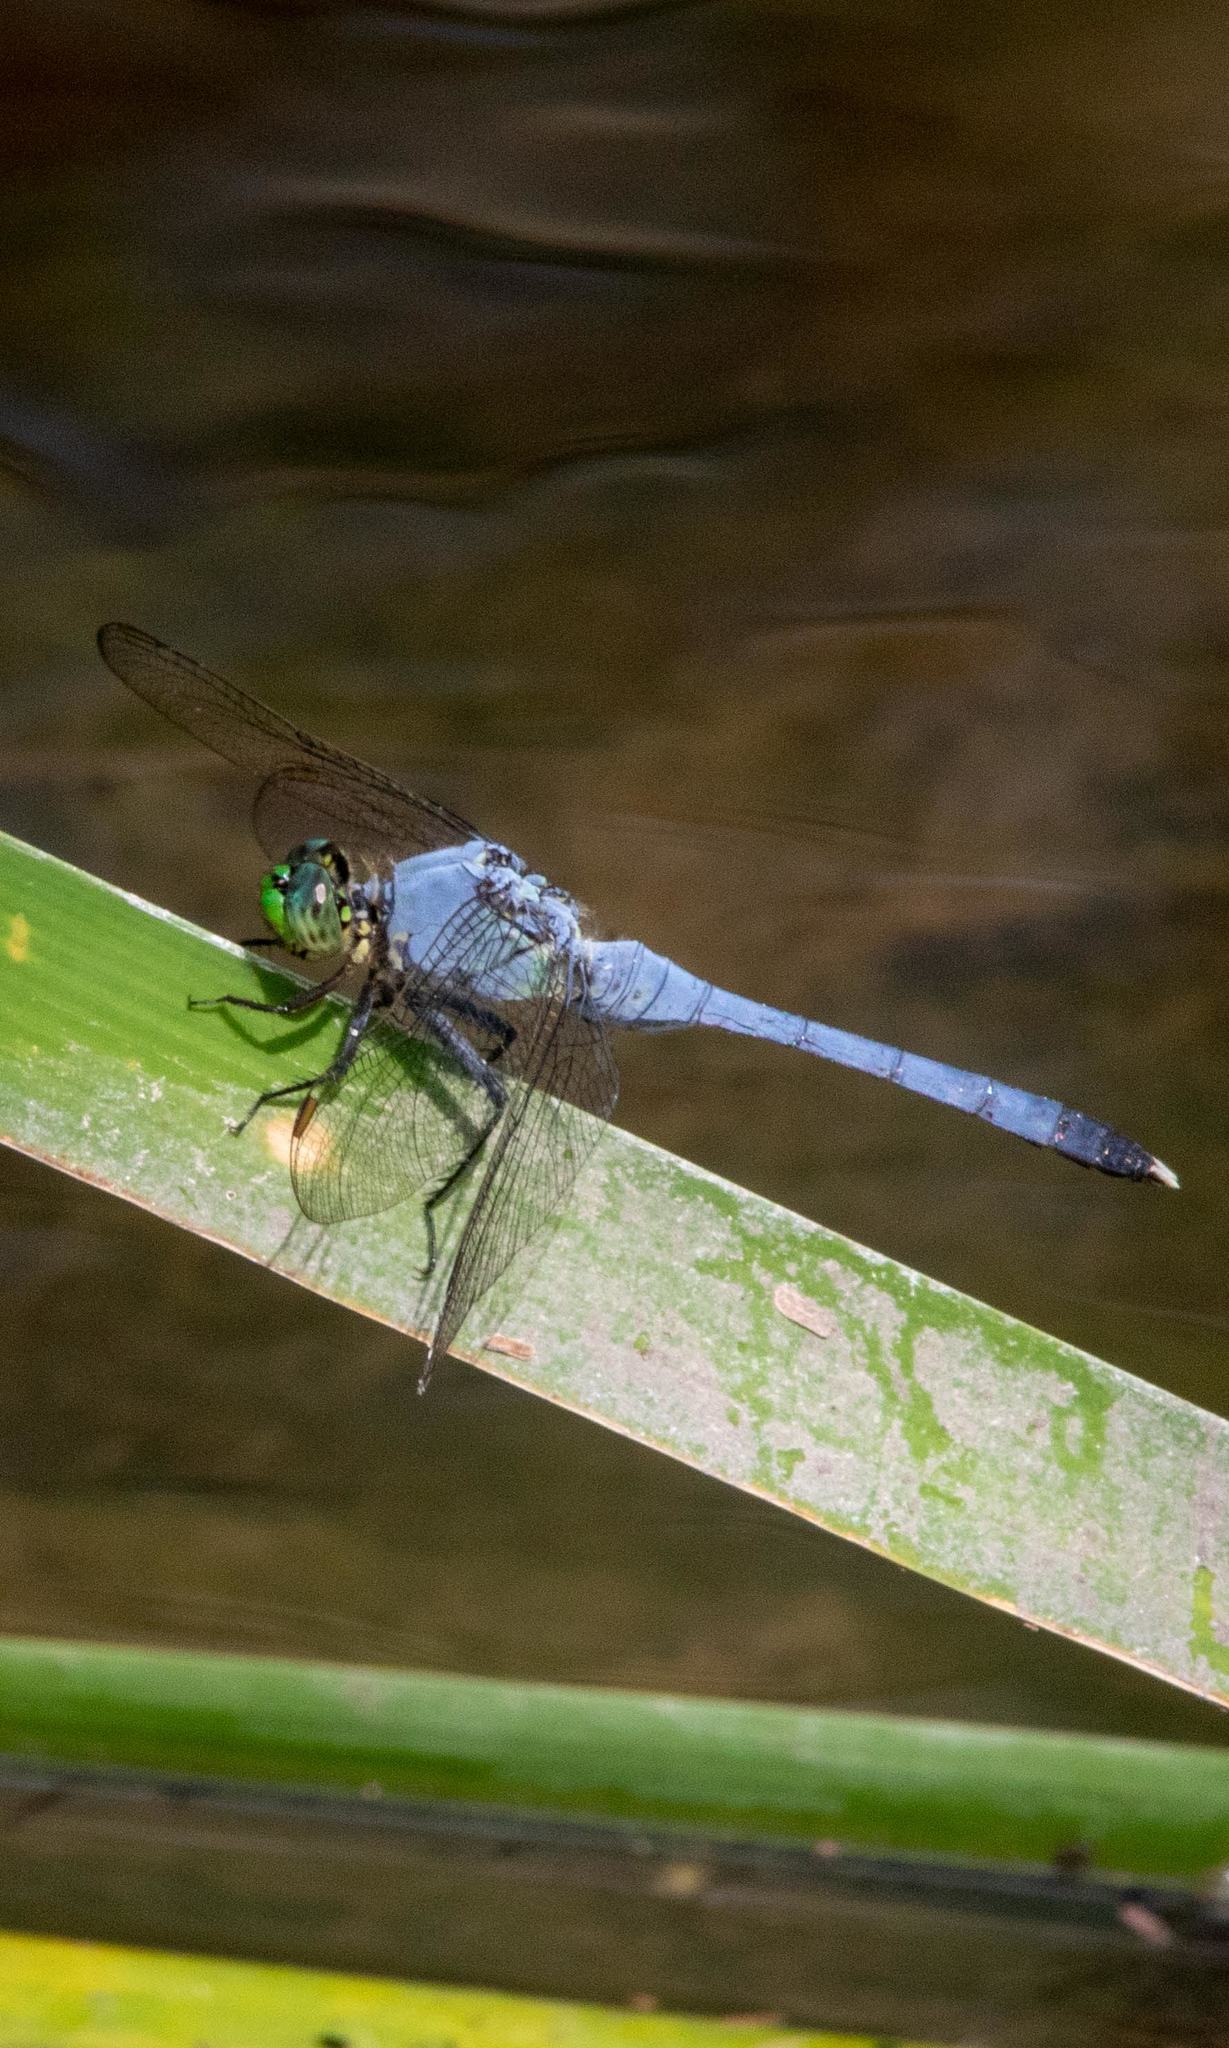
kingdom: Animalia
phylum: Arthropoda
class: Insecta
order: Odonata
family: Libellulidae
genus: Erythemis
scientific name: Erythemis simplicicollis
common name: Eastern pondhawk
